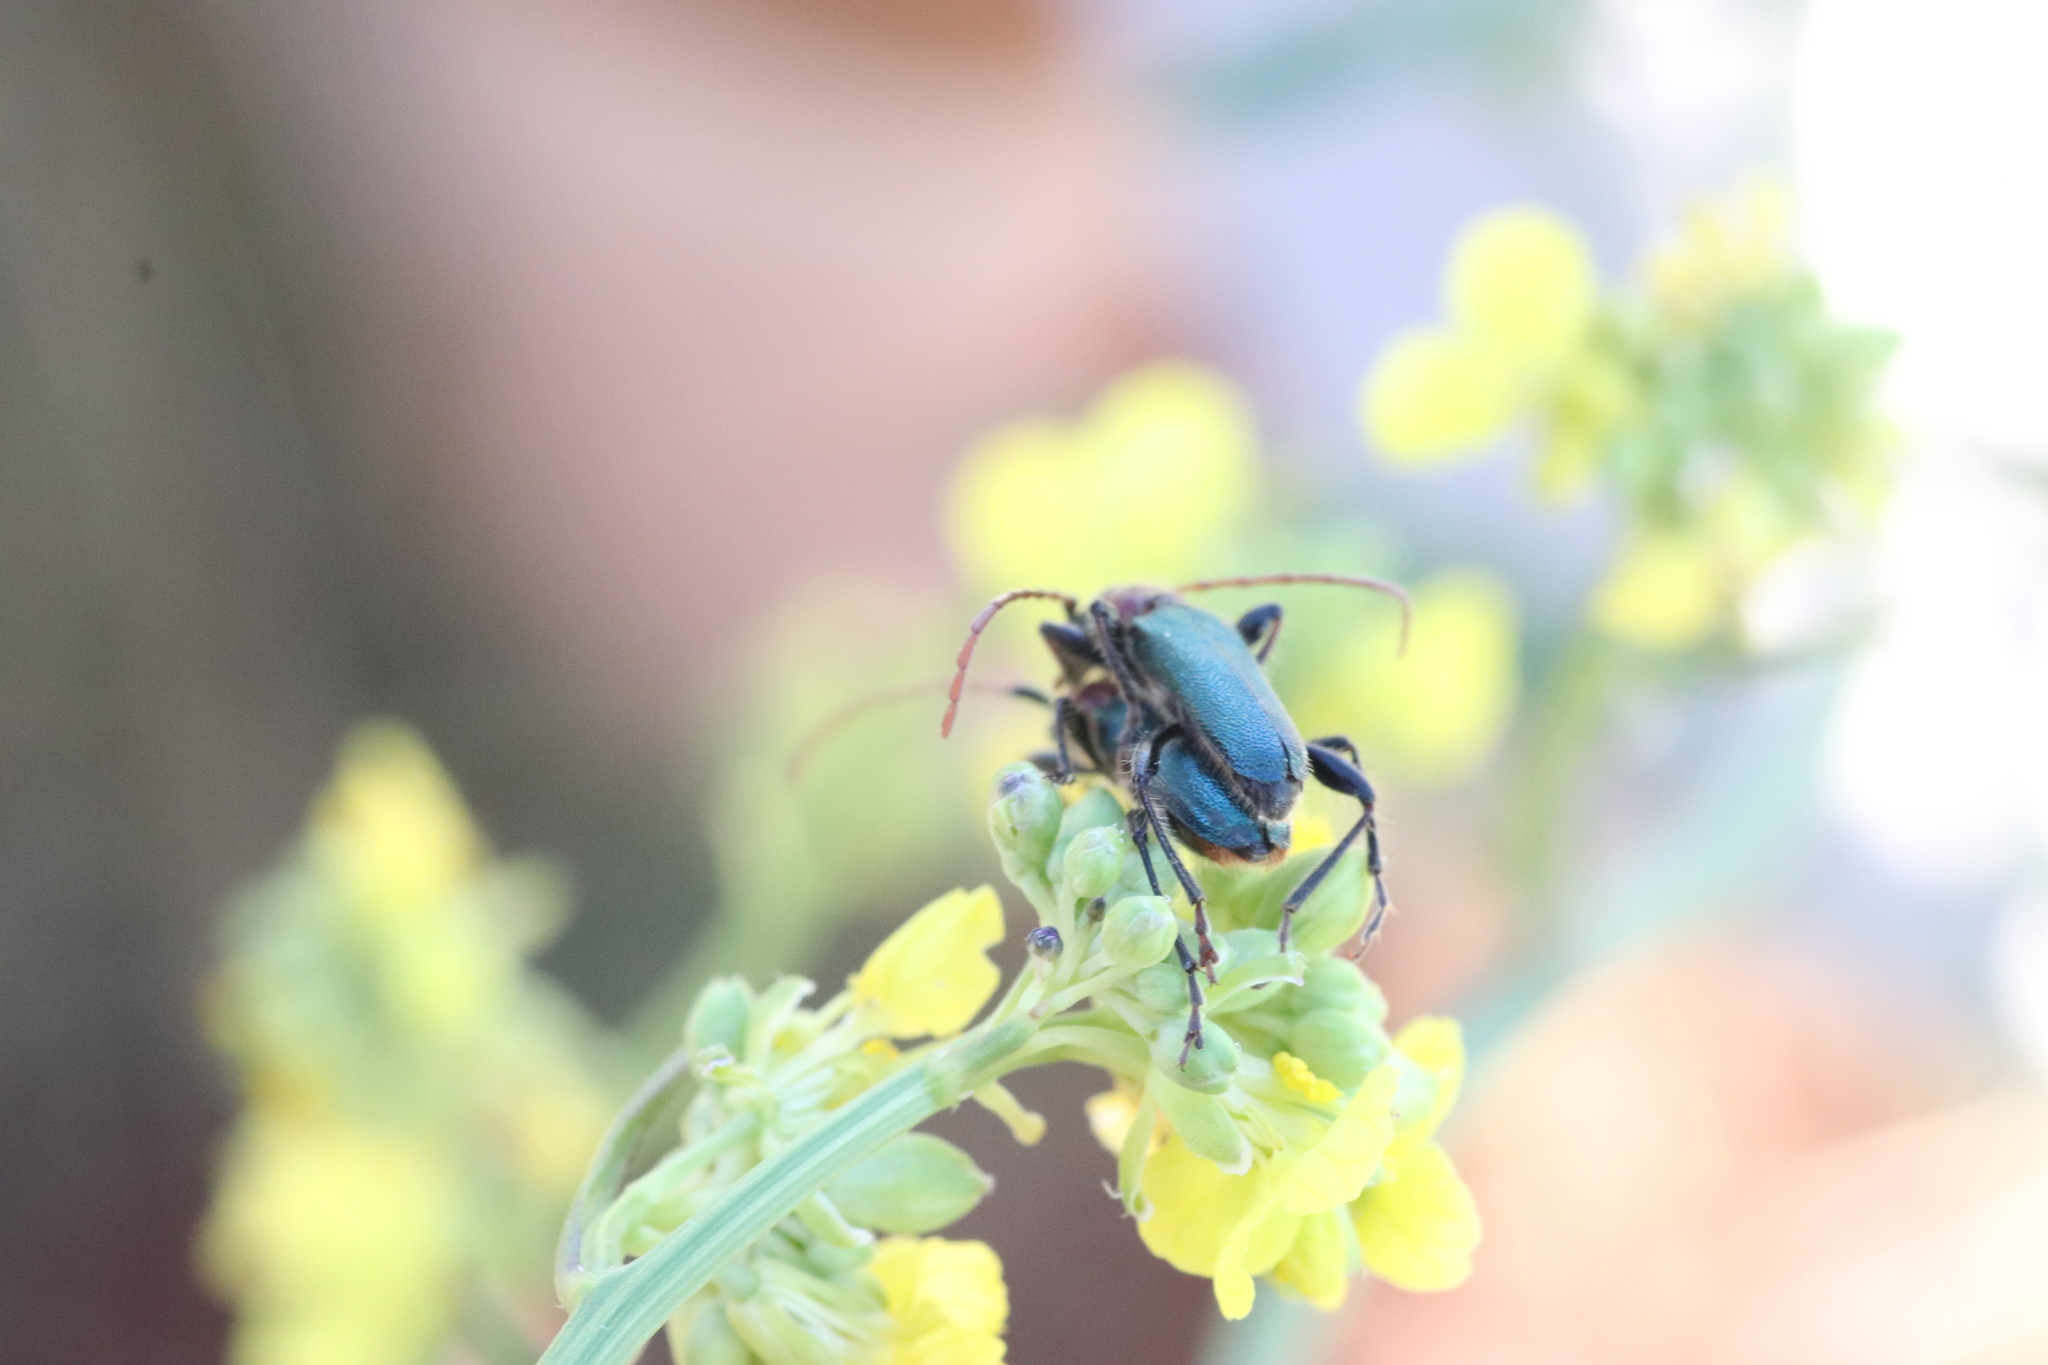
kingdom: Animalia
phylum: Arthropoda
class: Insecta
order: Coleoptera
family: Cerambycidae
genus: Certallum
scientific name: Certallum ebulinum
